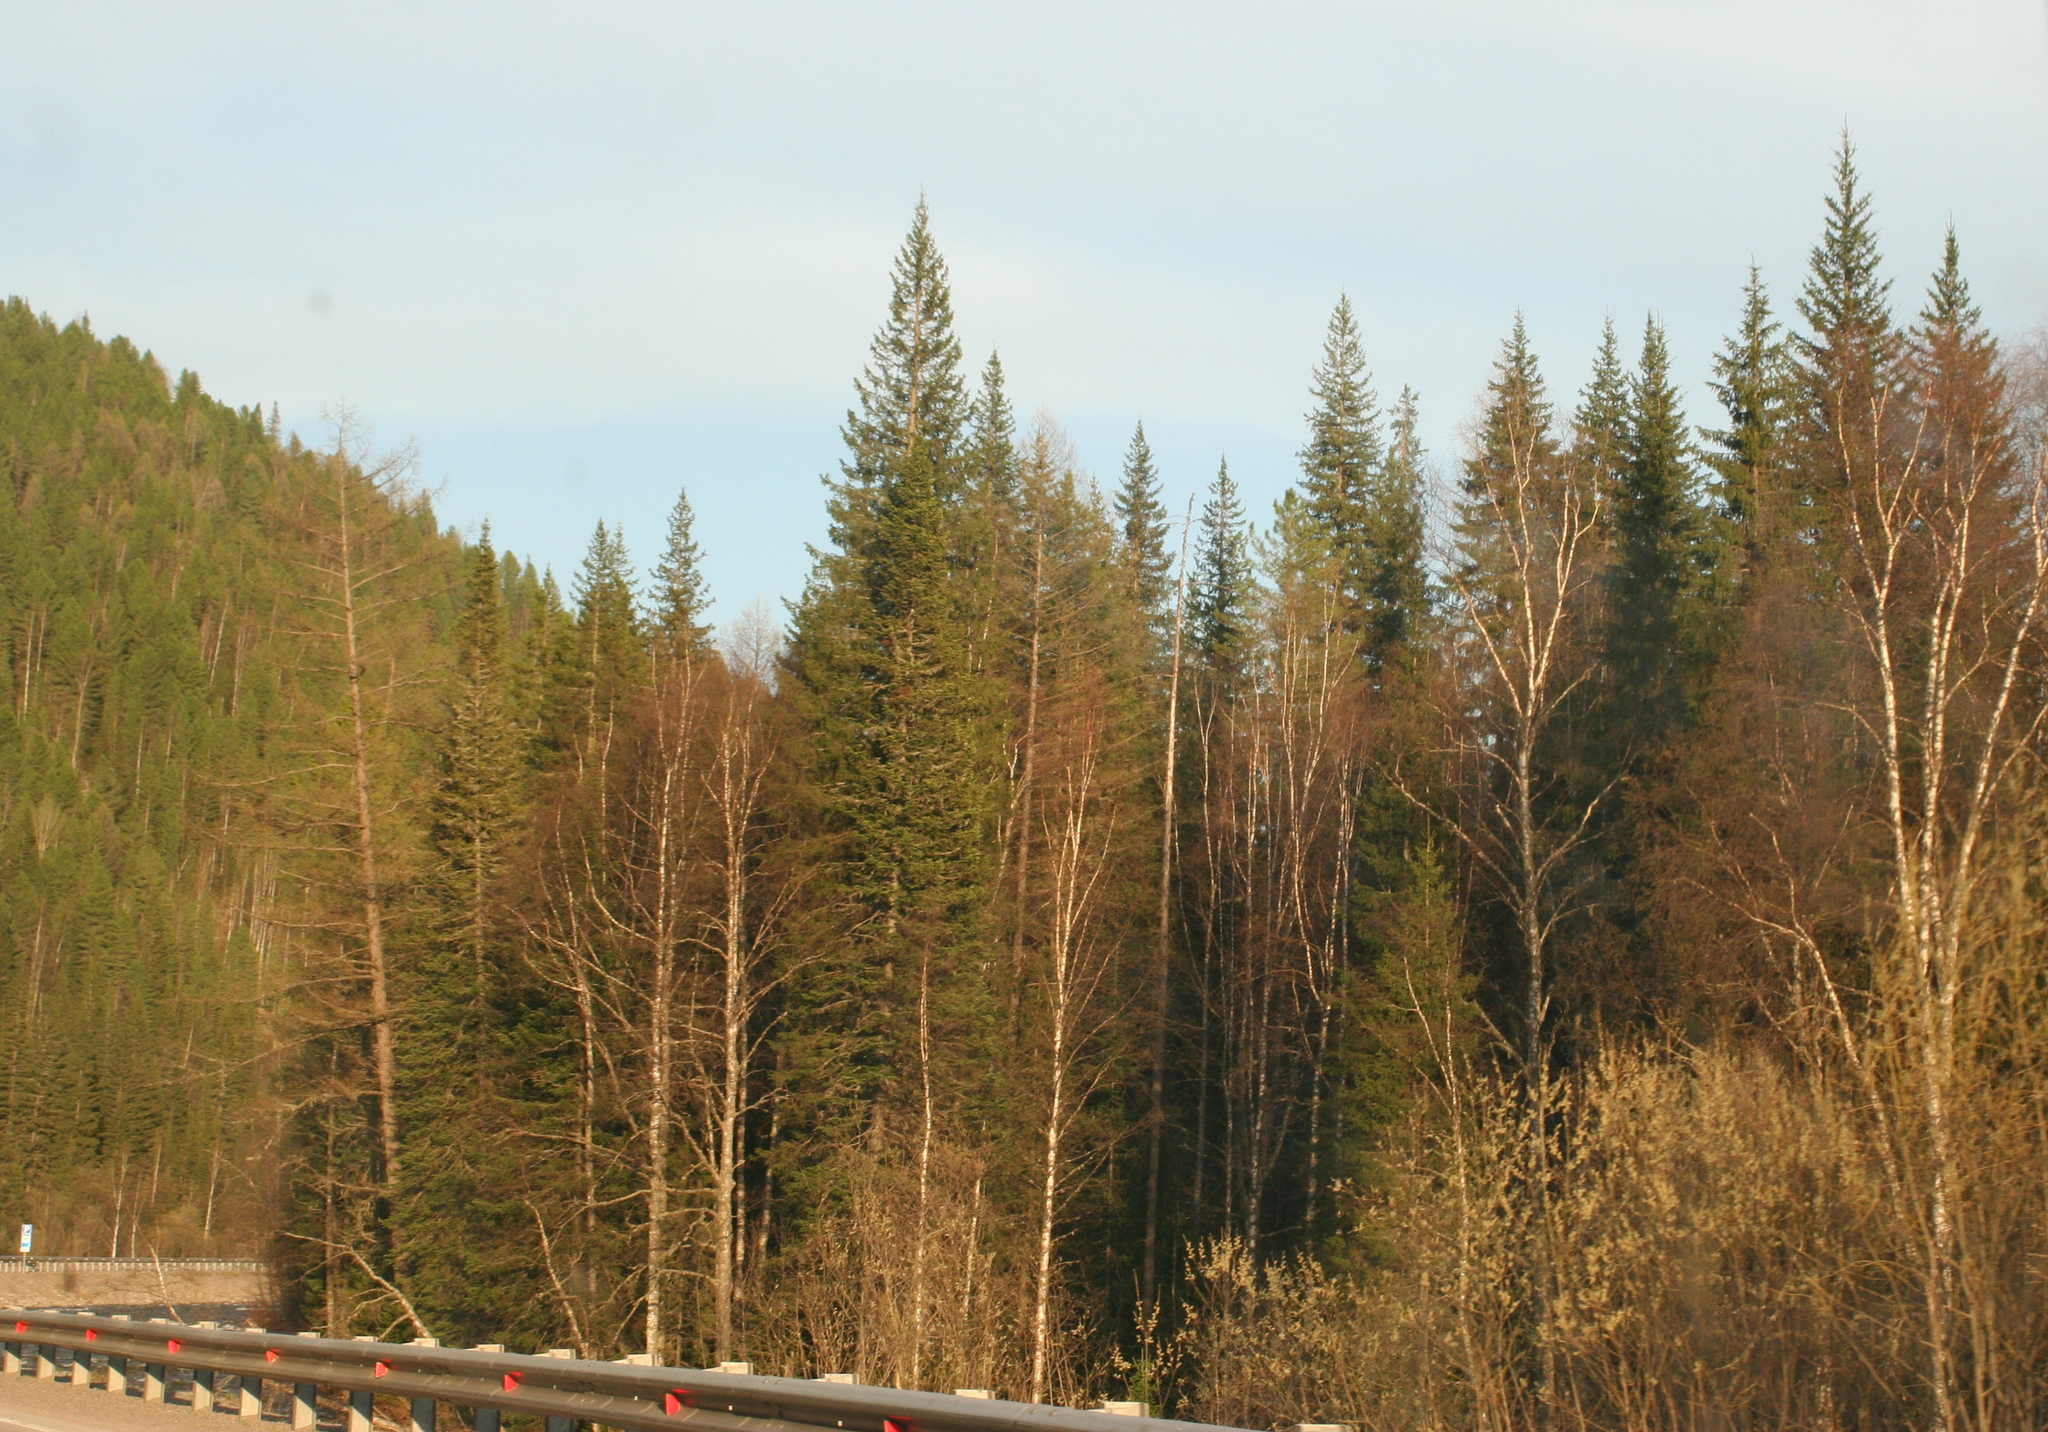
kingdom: Plantae
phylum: Tracheophyta
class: Pinopsida
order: Pinales
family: Pinaceae
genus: Picea
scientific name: Picea obovata
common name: Siberian spruce
